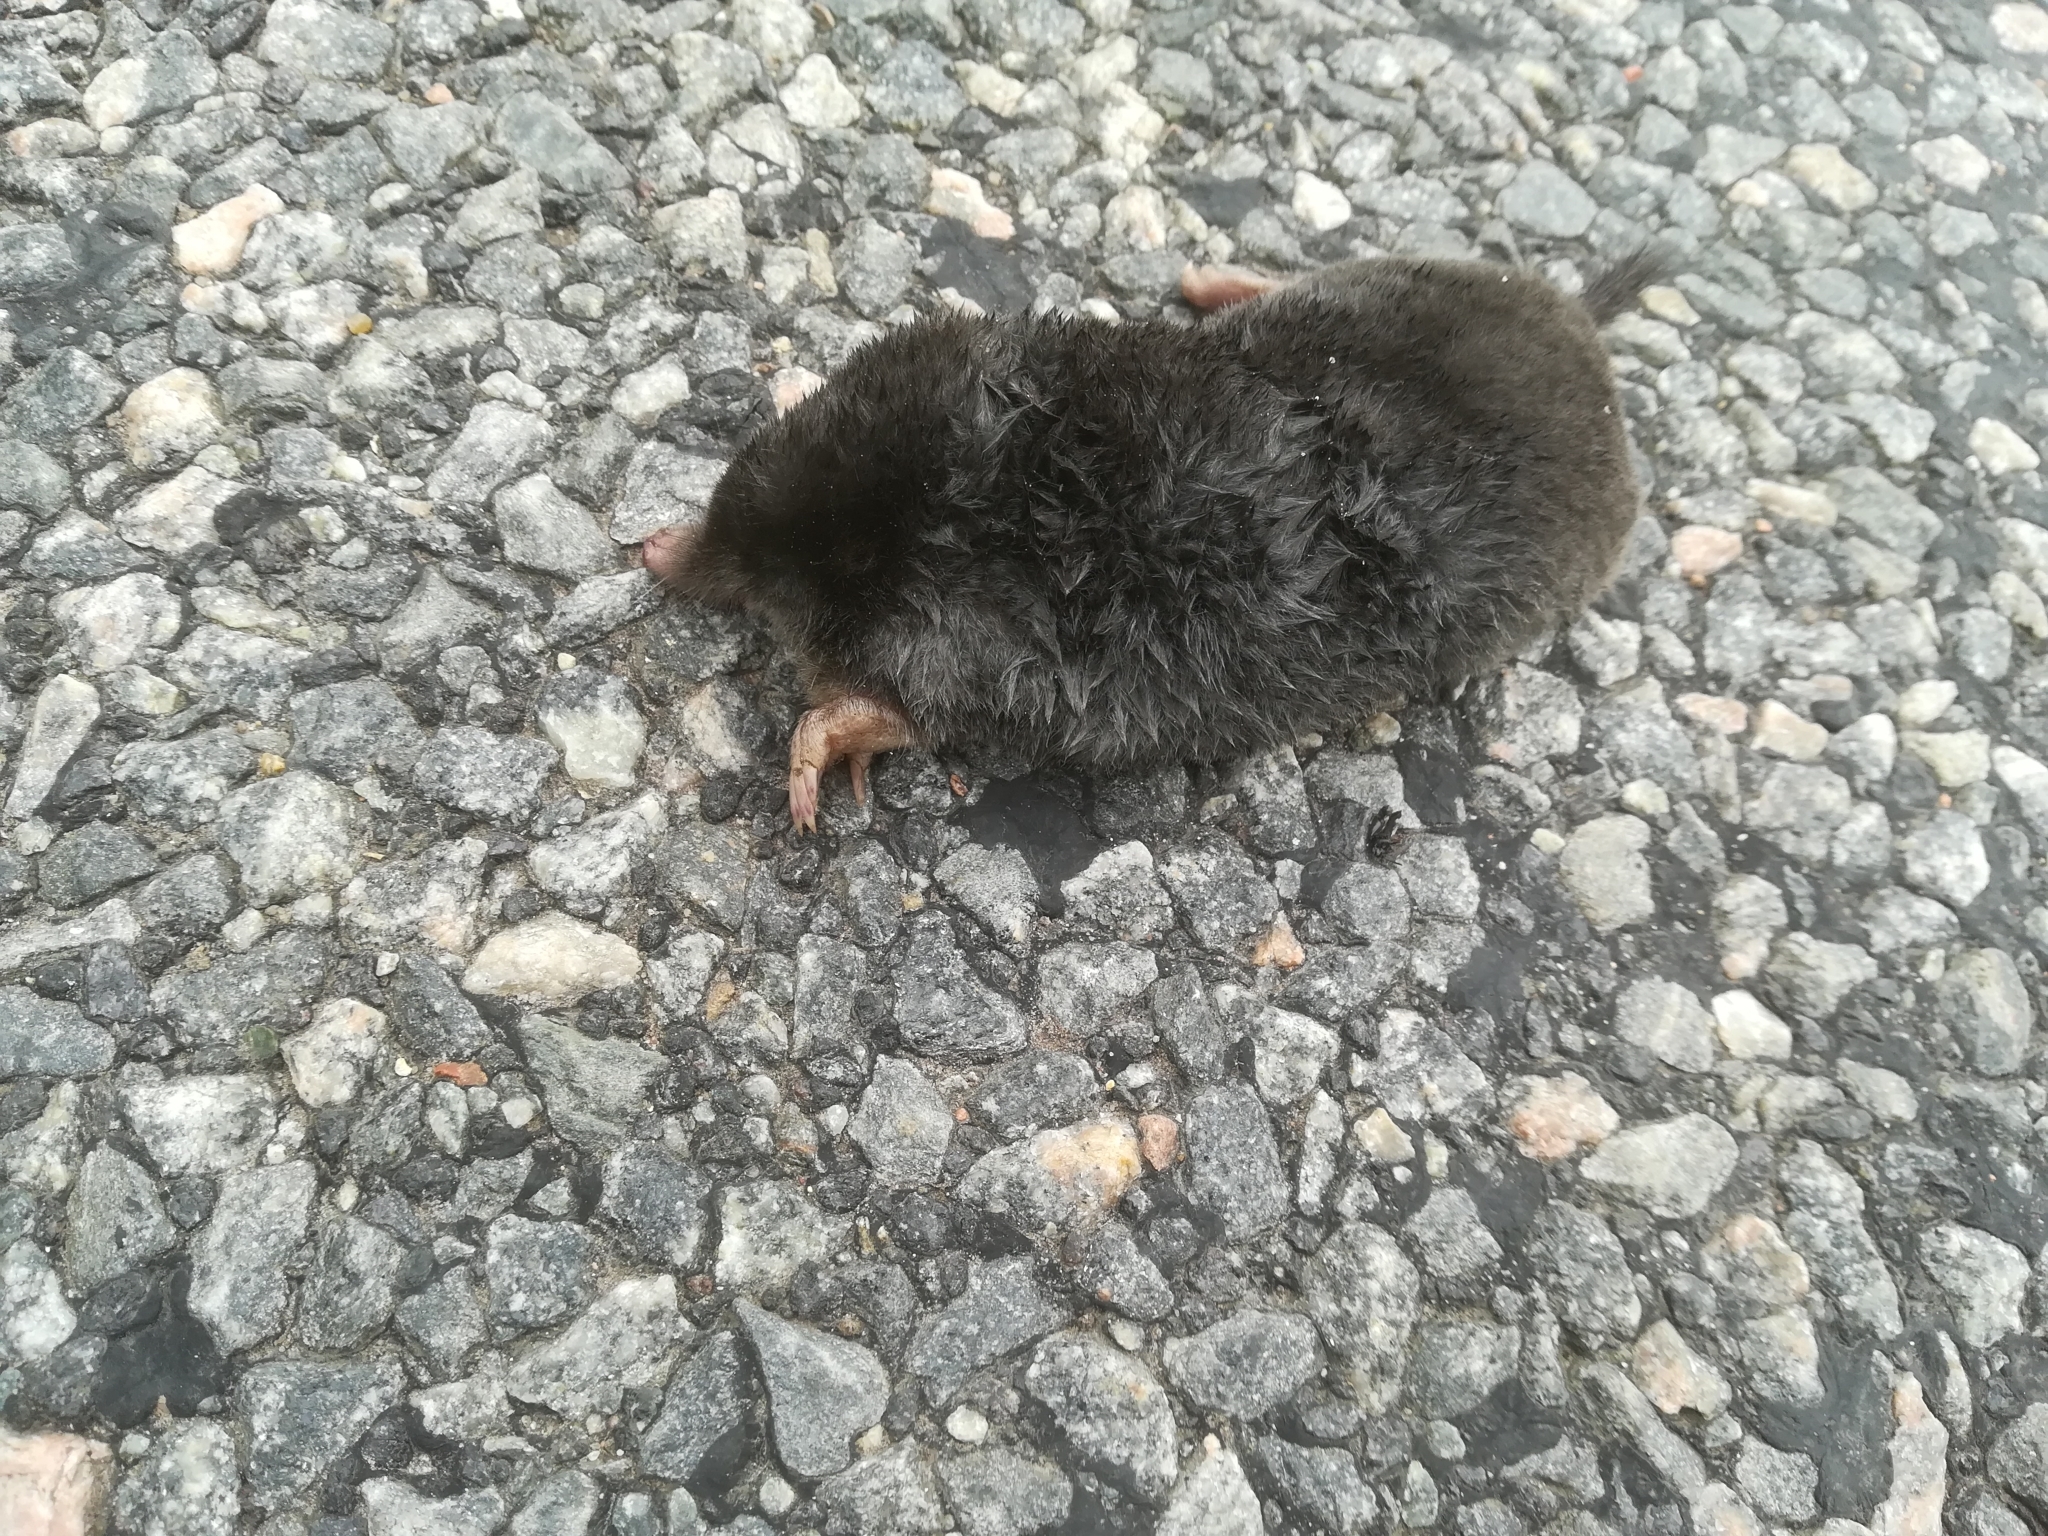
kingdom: Animalia
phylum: Chordata
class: Mammalia
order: Soricomorpha
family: Talpidae
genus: Talpa
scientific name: Talpa europaea
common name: European mole
